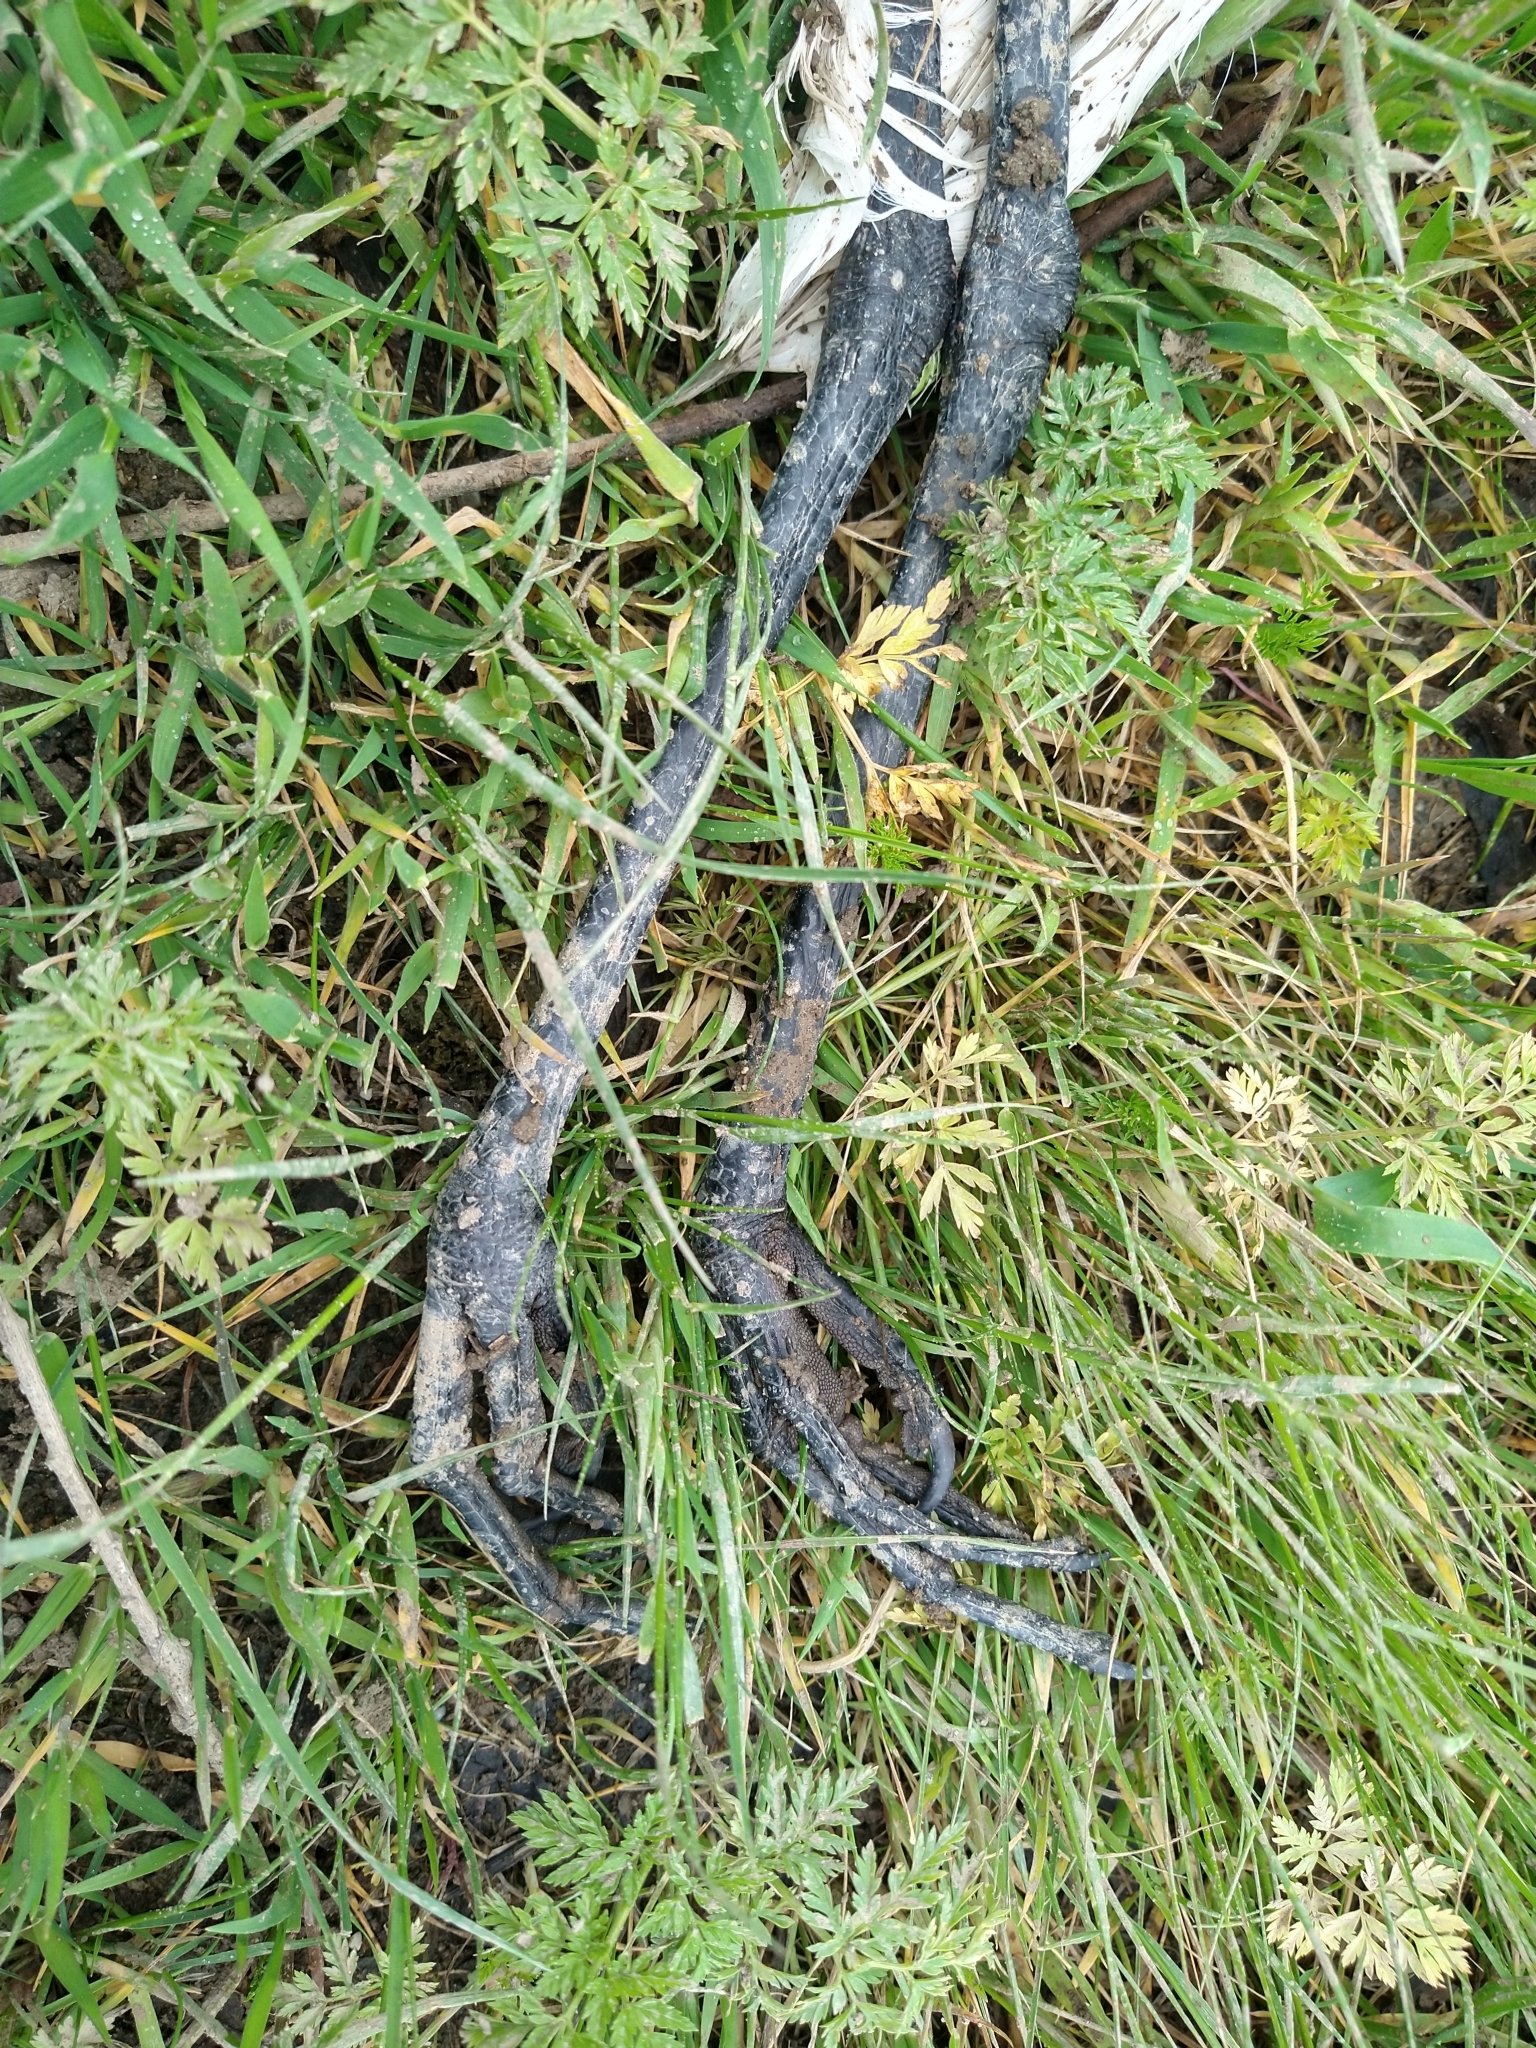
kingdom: Animalia
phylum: Chordata
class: Aves
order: Pelecaniformes
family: Ardeidae
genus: Ardea
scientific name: Ardea alba
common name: Great egret
